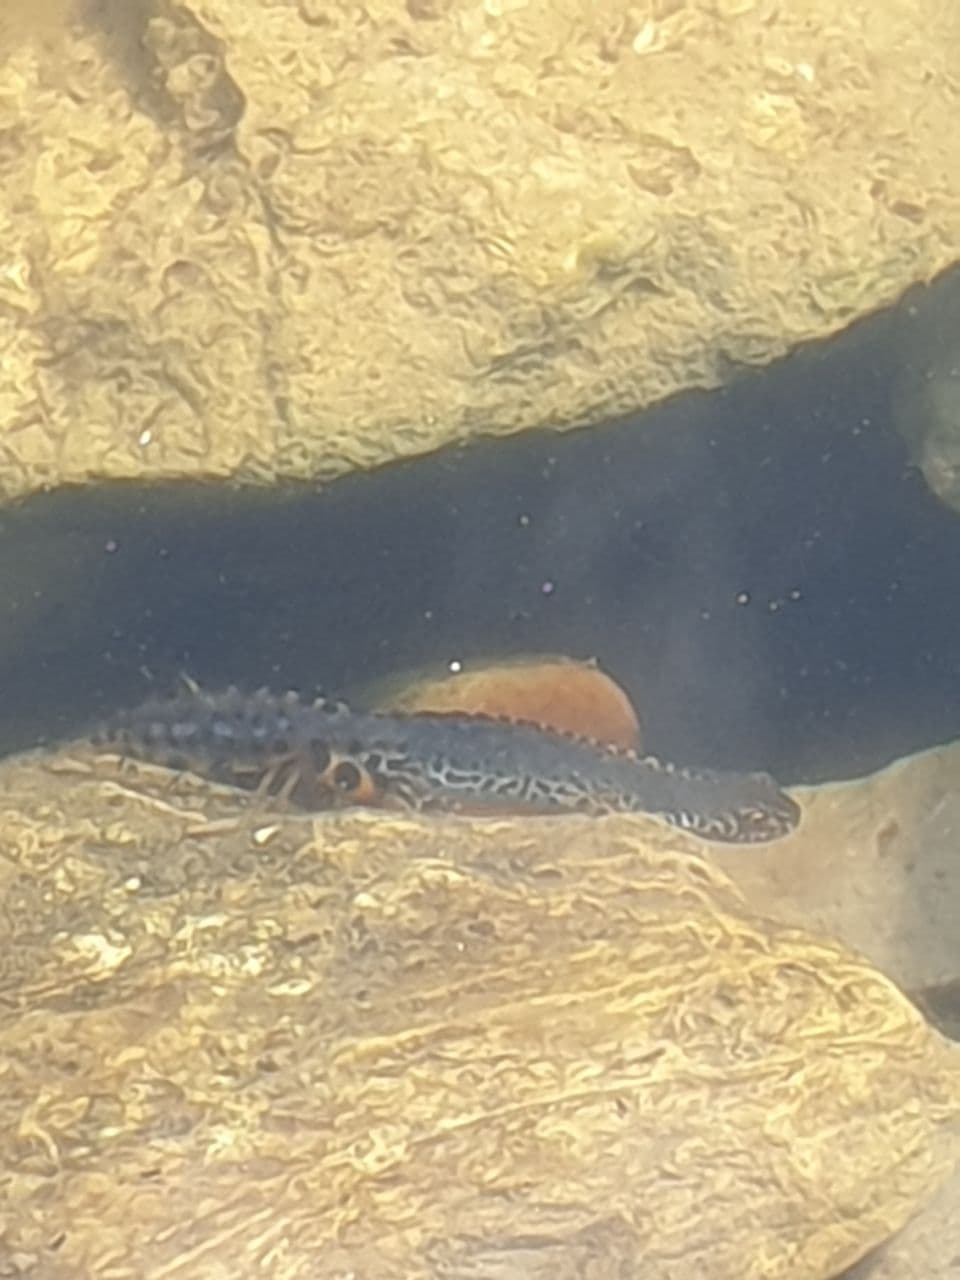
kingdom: Animalia
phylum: Chordata
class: Amphibia
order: Caudata
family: Salamandridae
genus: Ichthyosaura
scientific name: Ichthyosaura alpestris
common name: Alpine newt
